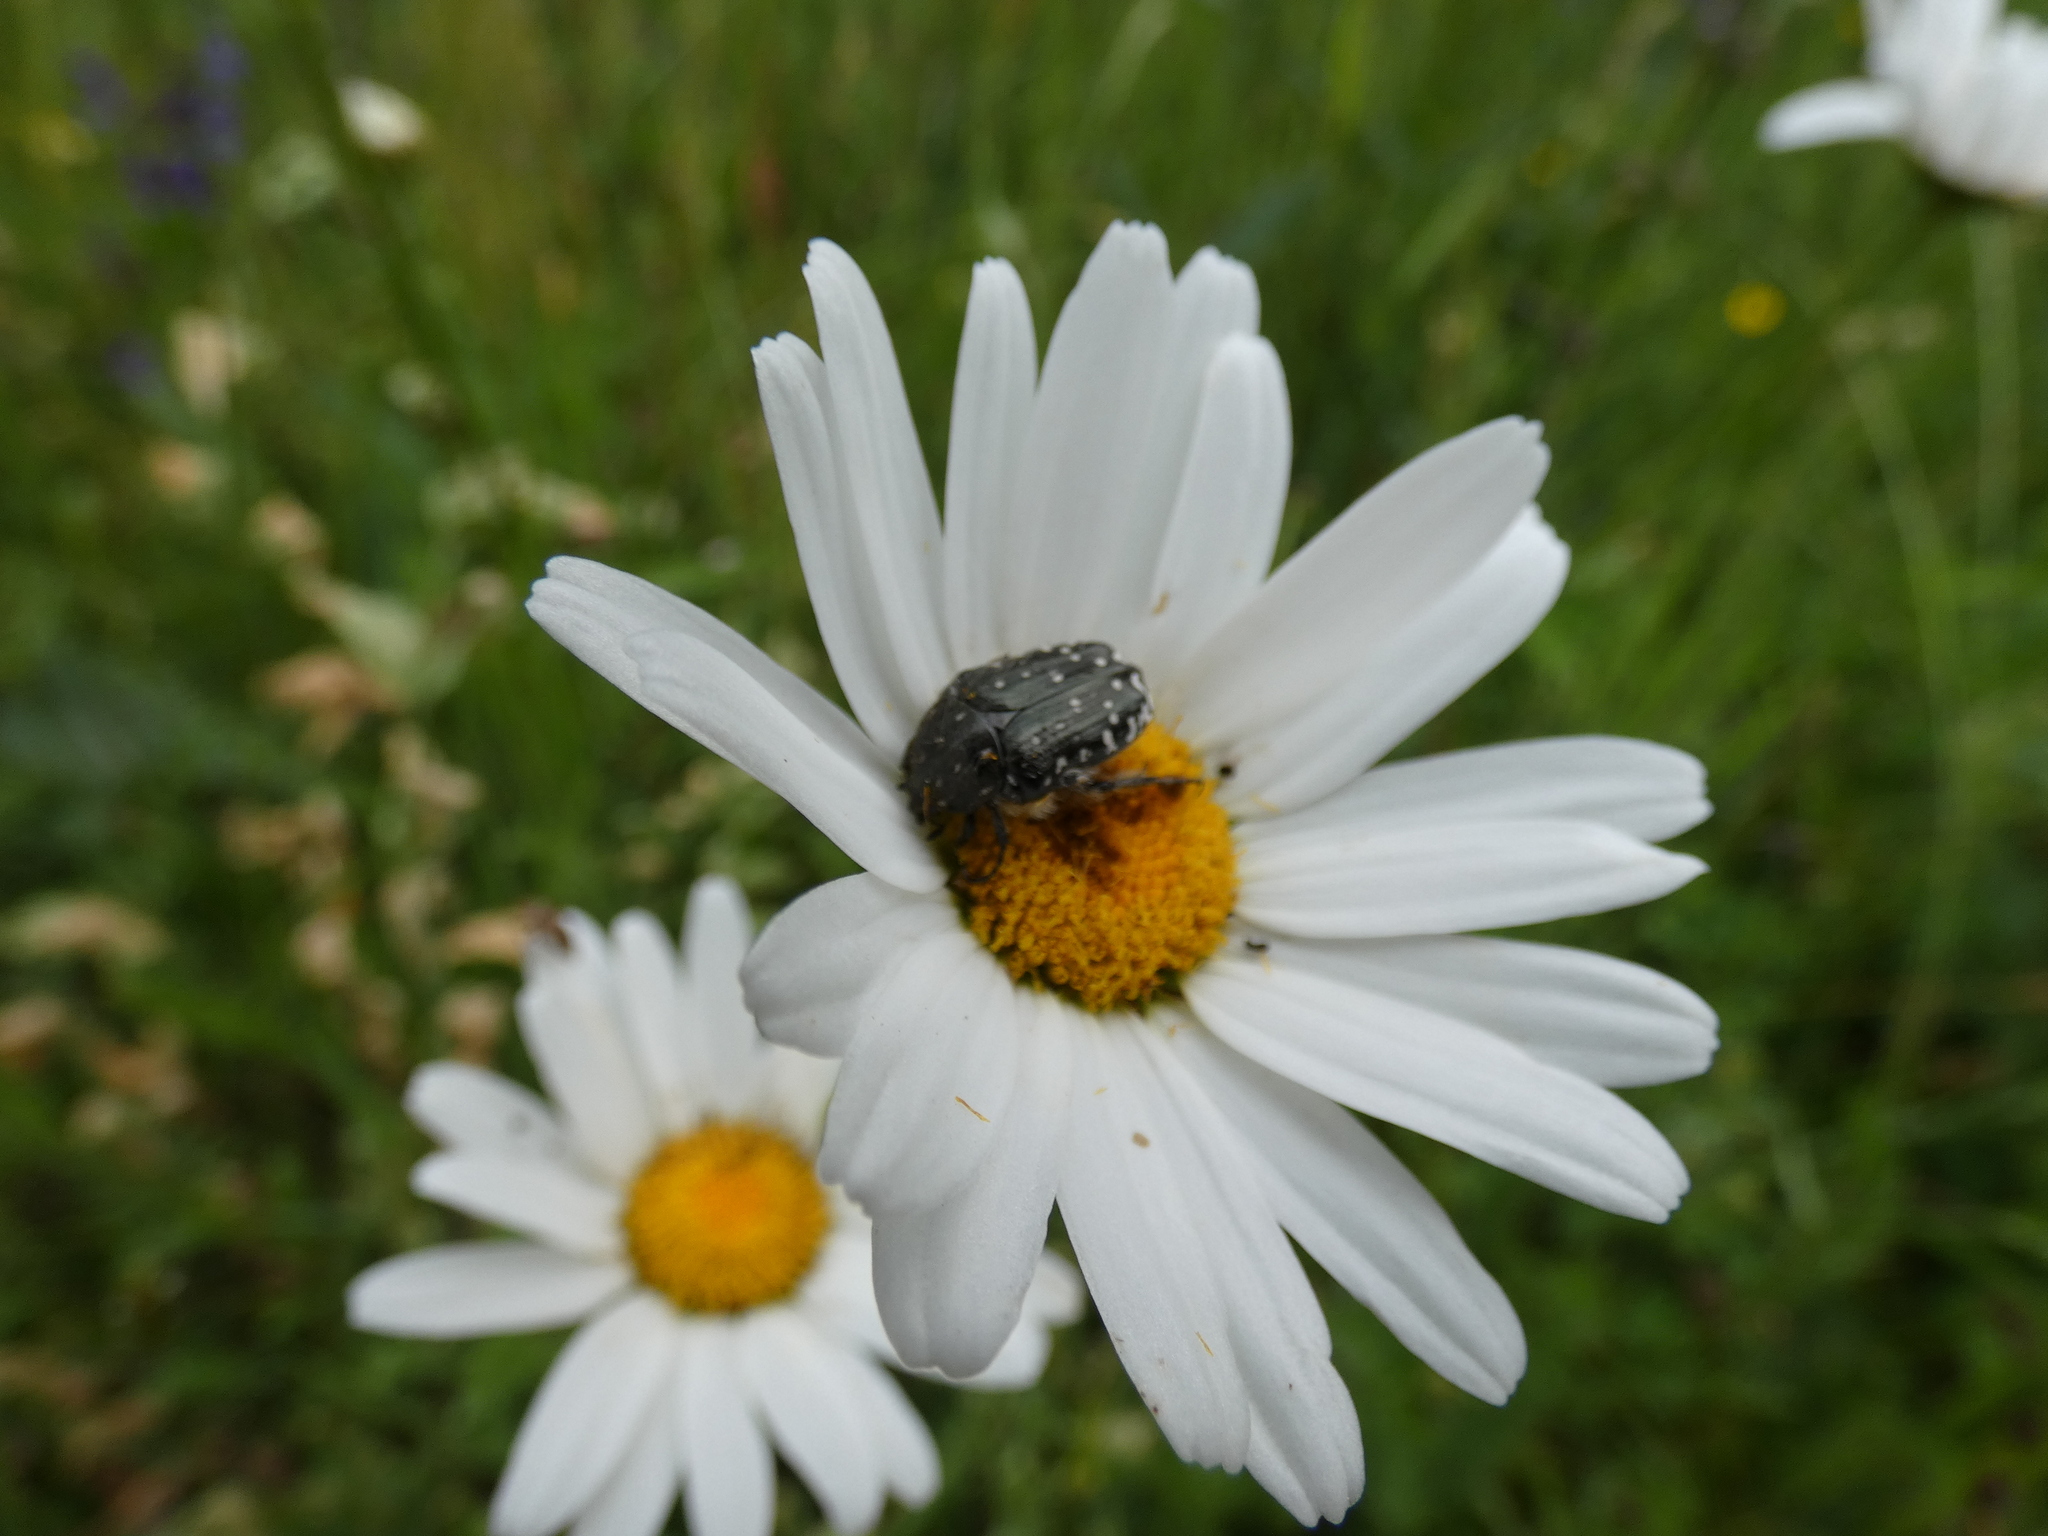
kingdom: Animalia
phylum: Arthropoda
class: Insecta
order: Coleoptera
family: Scarabaeidae
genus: Oxythyrea
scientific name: Oxythyrea funesta
